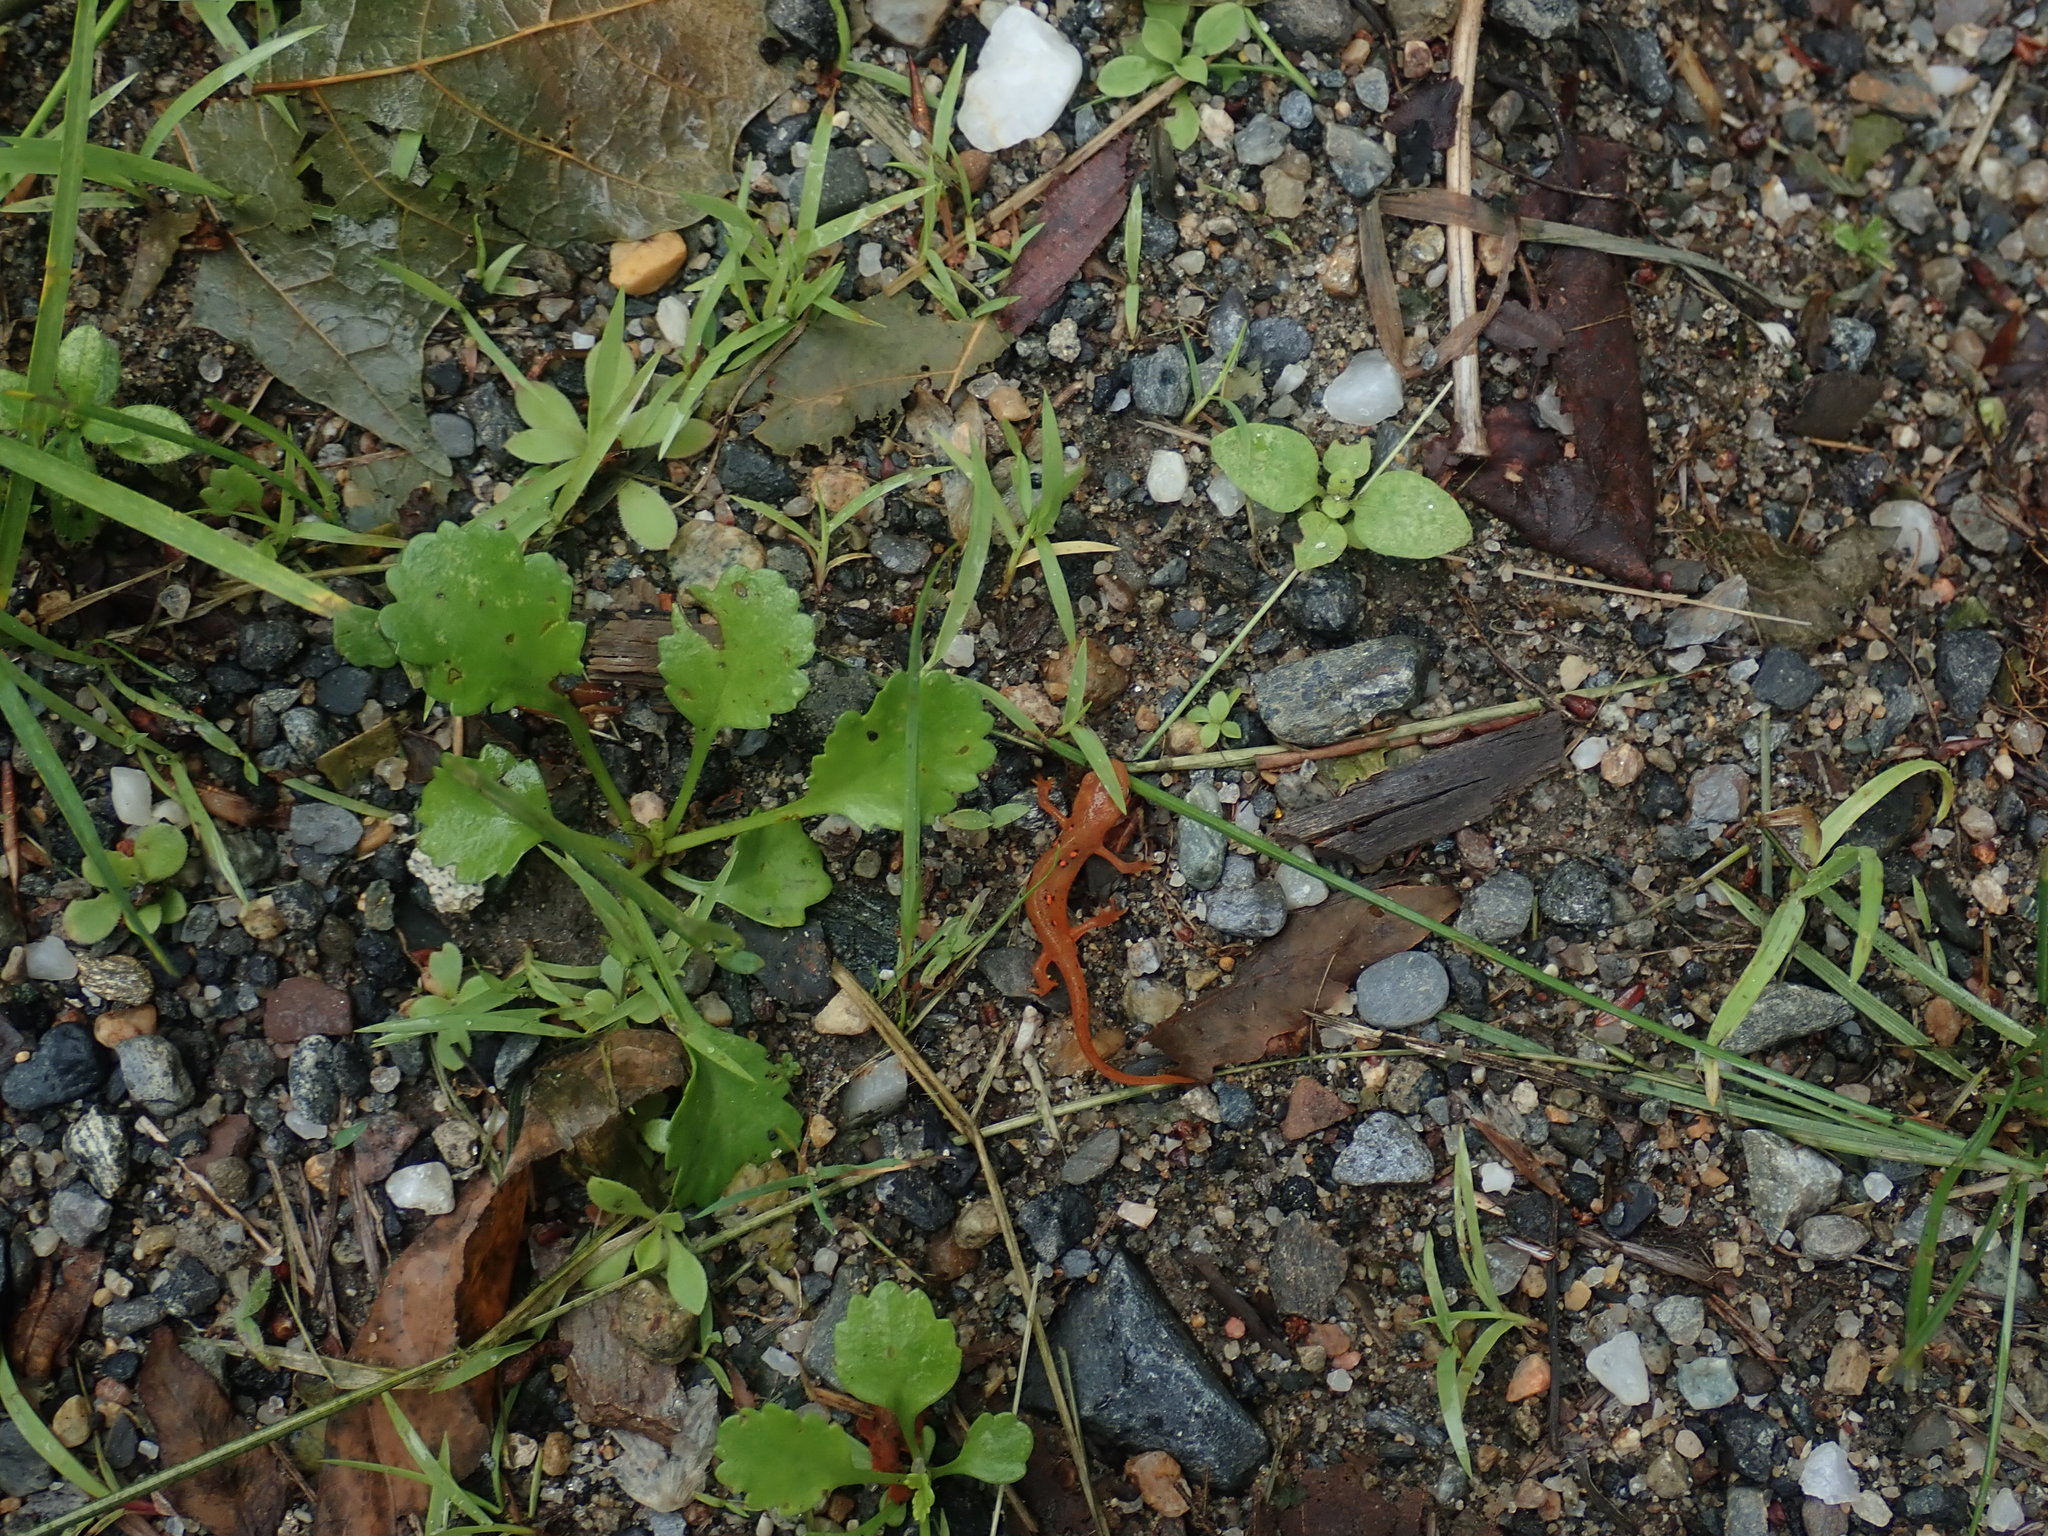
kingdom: Animalia
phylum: Chordata
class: Amphibia
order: Caudata
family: Salamandridae
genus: Notophthalmus
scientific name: Notophthalmus viridescens
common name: Eastern newt
